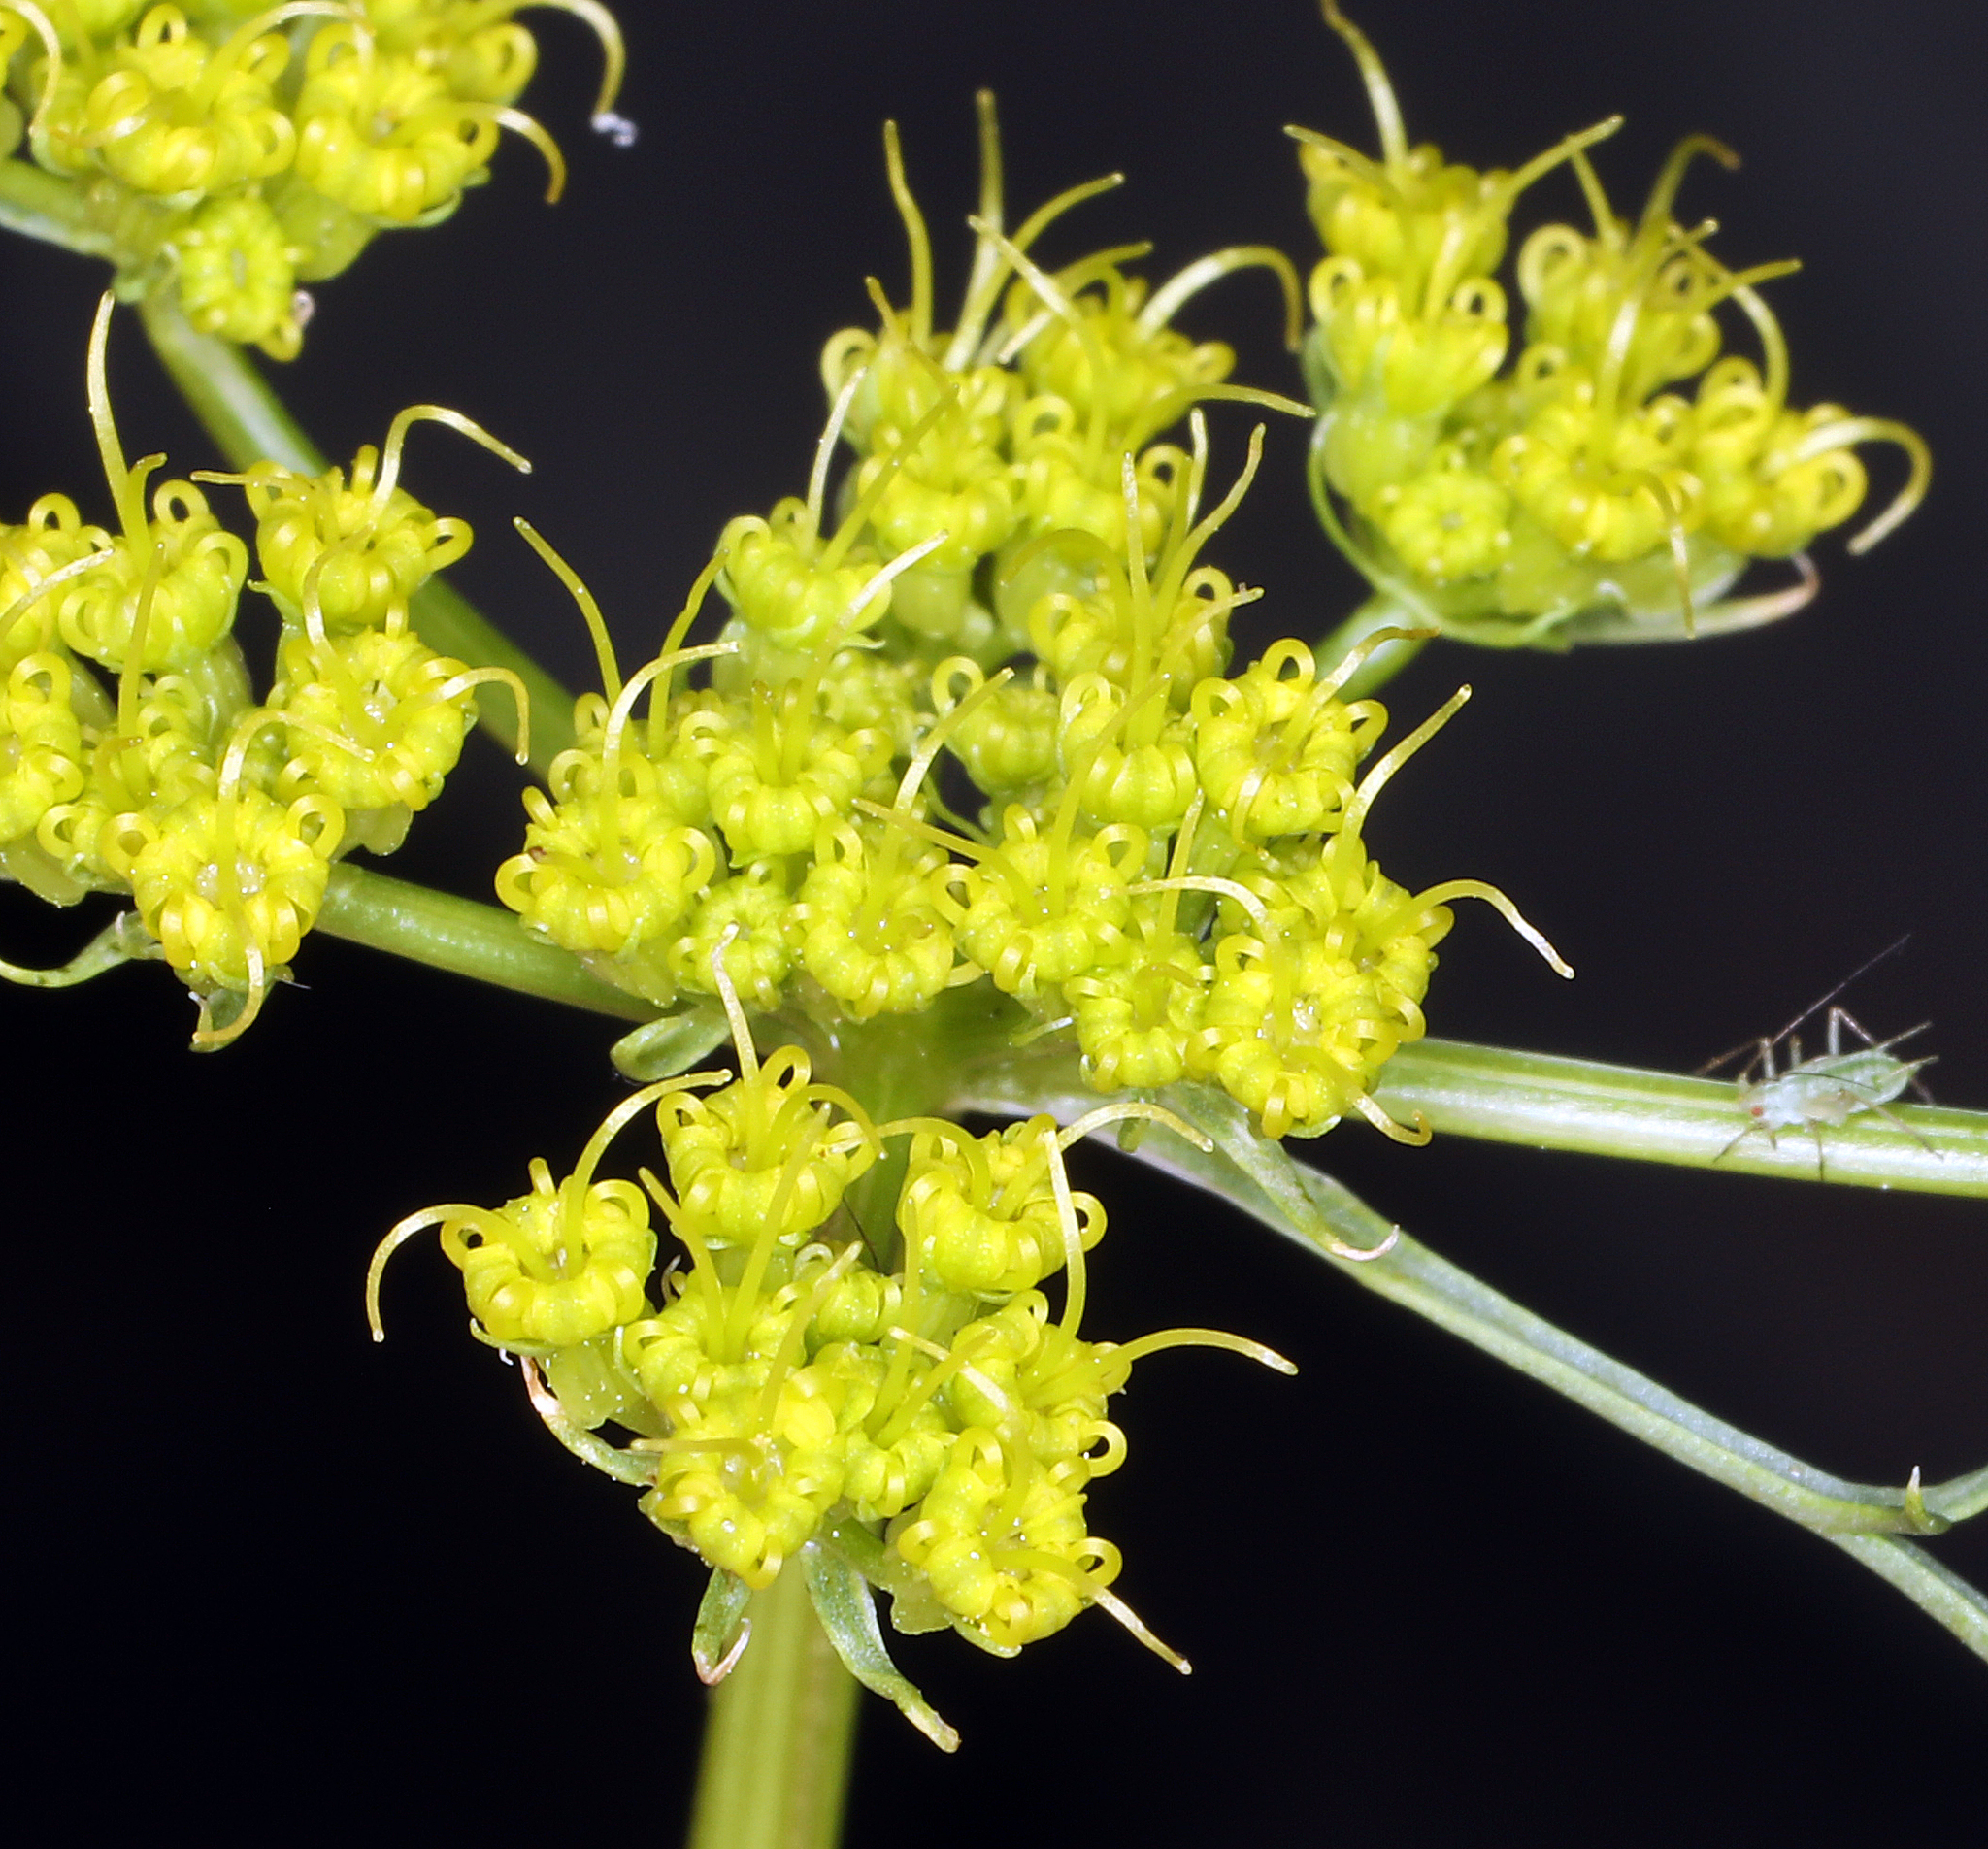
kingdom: Plantae
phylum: Tracheophyta
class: Magnoliopsida
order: Apiales
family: Apiaceae
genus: Pteryxia
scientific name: Pteryxia petraea
